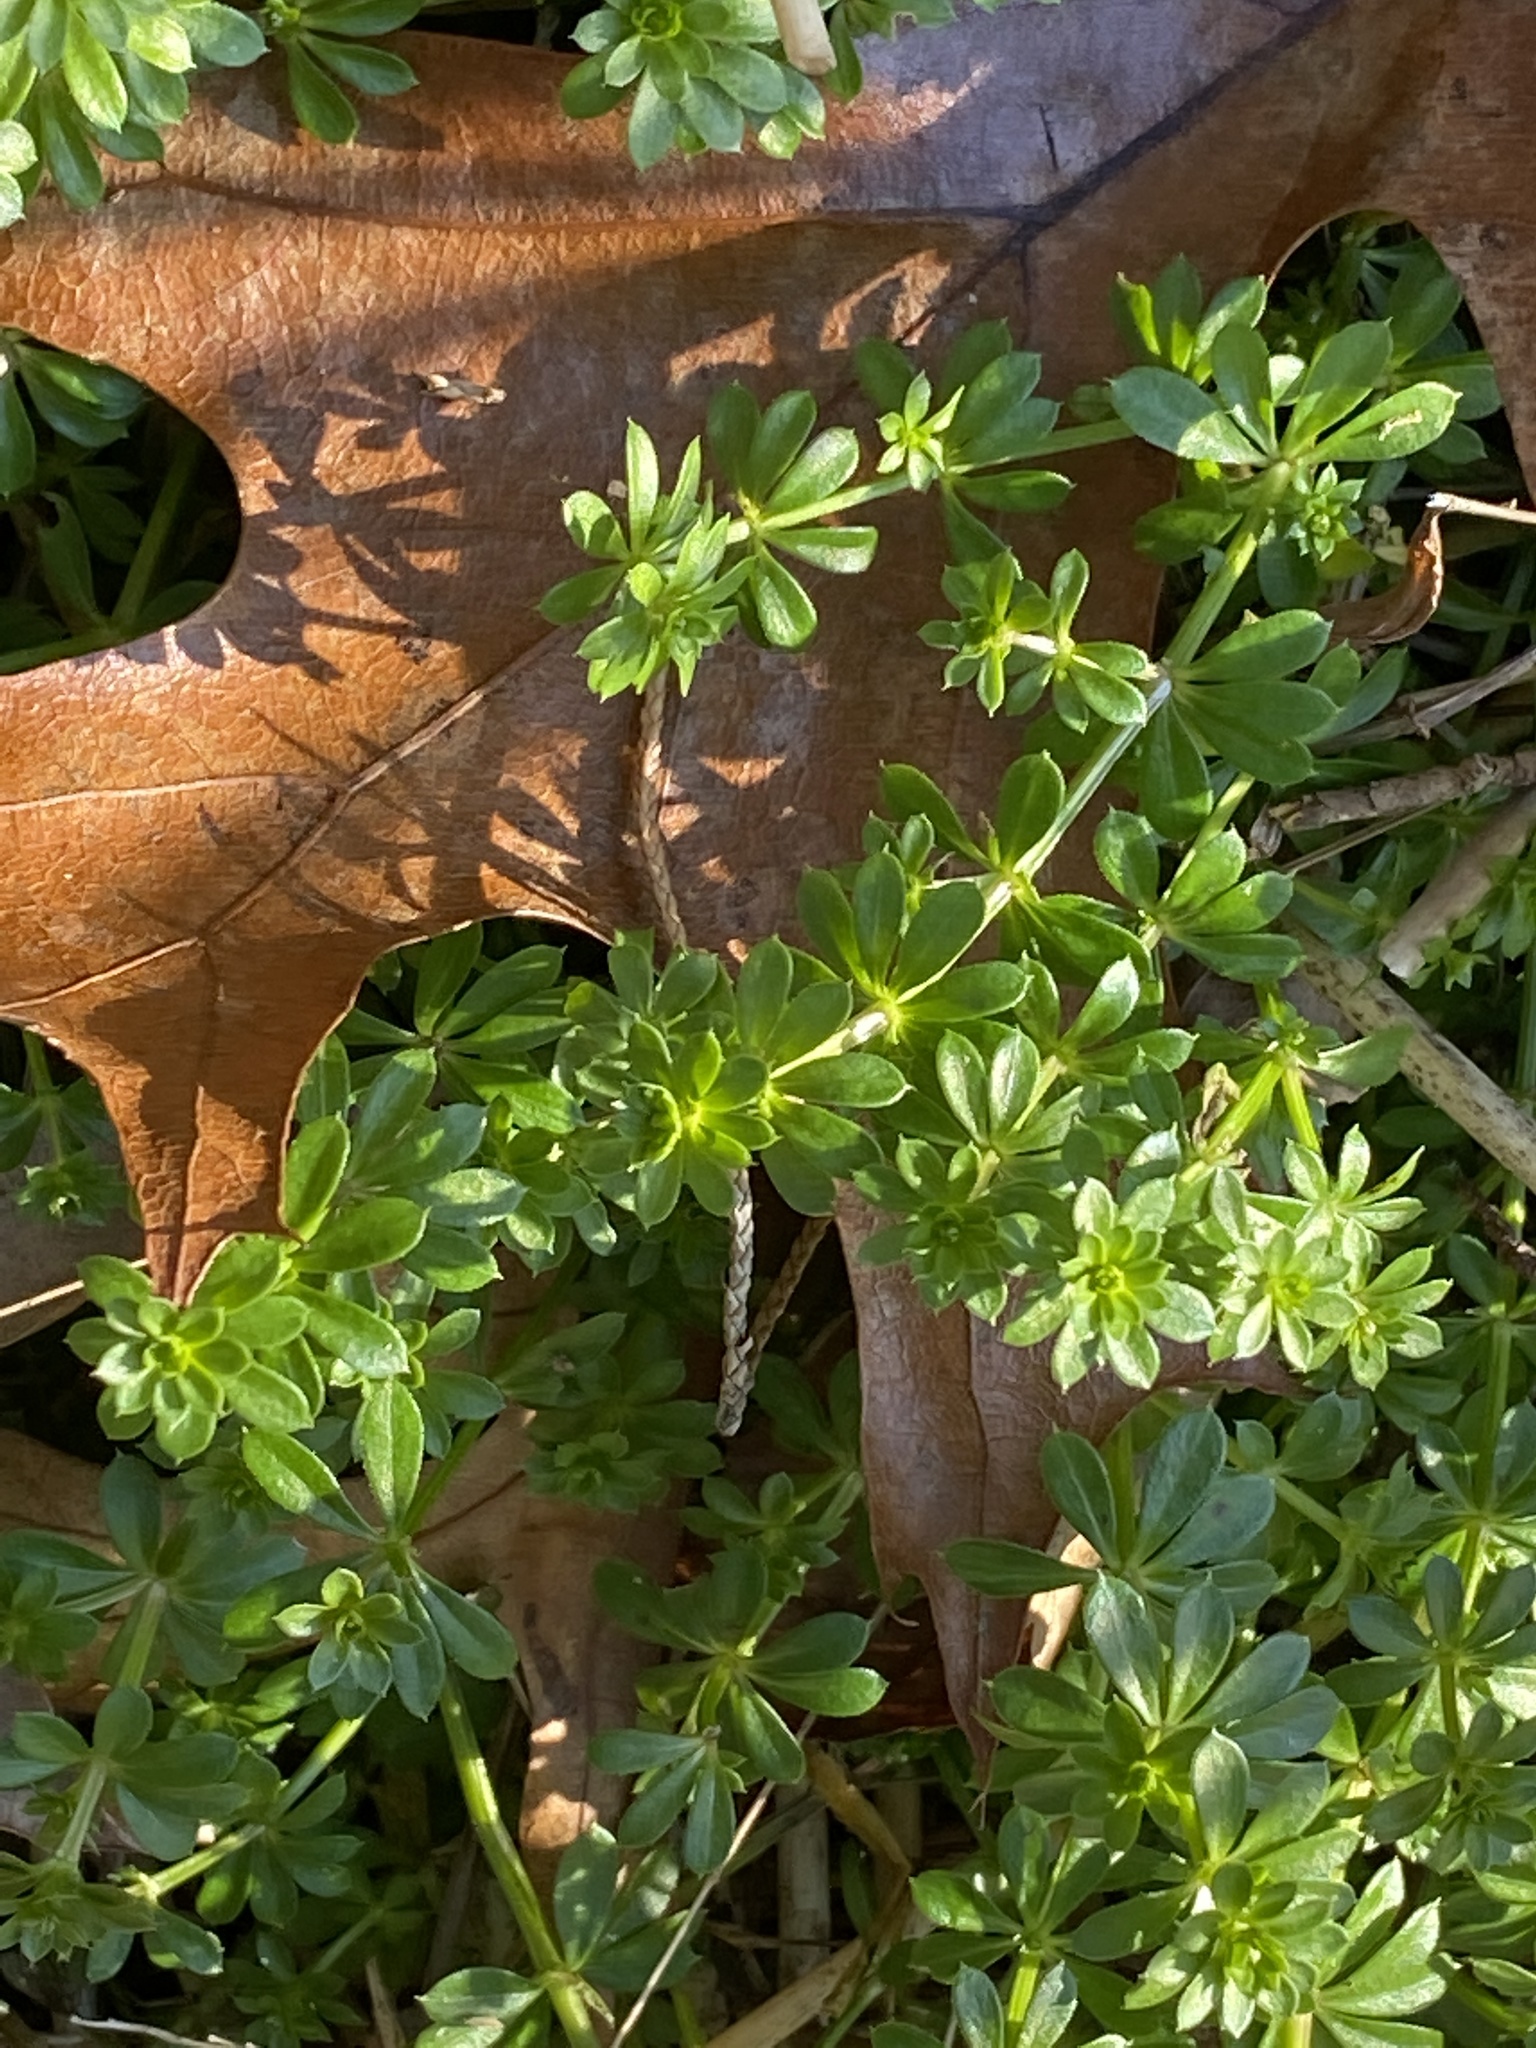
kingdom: Plantae
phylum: Tracheophyta
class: Magnoliopsida
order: Gentianales
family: Rubiaceae
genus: Galium
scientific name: Galium mollugo
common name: Hedge bedstraw
